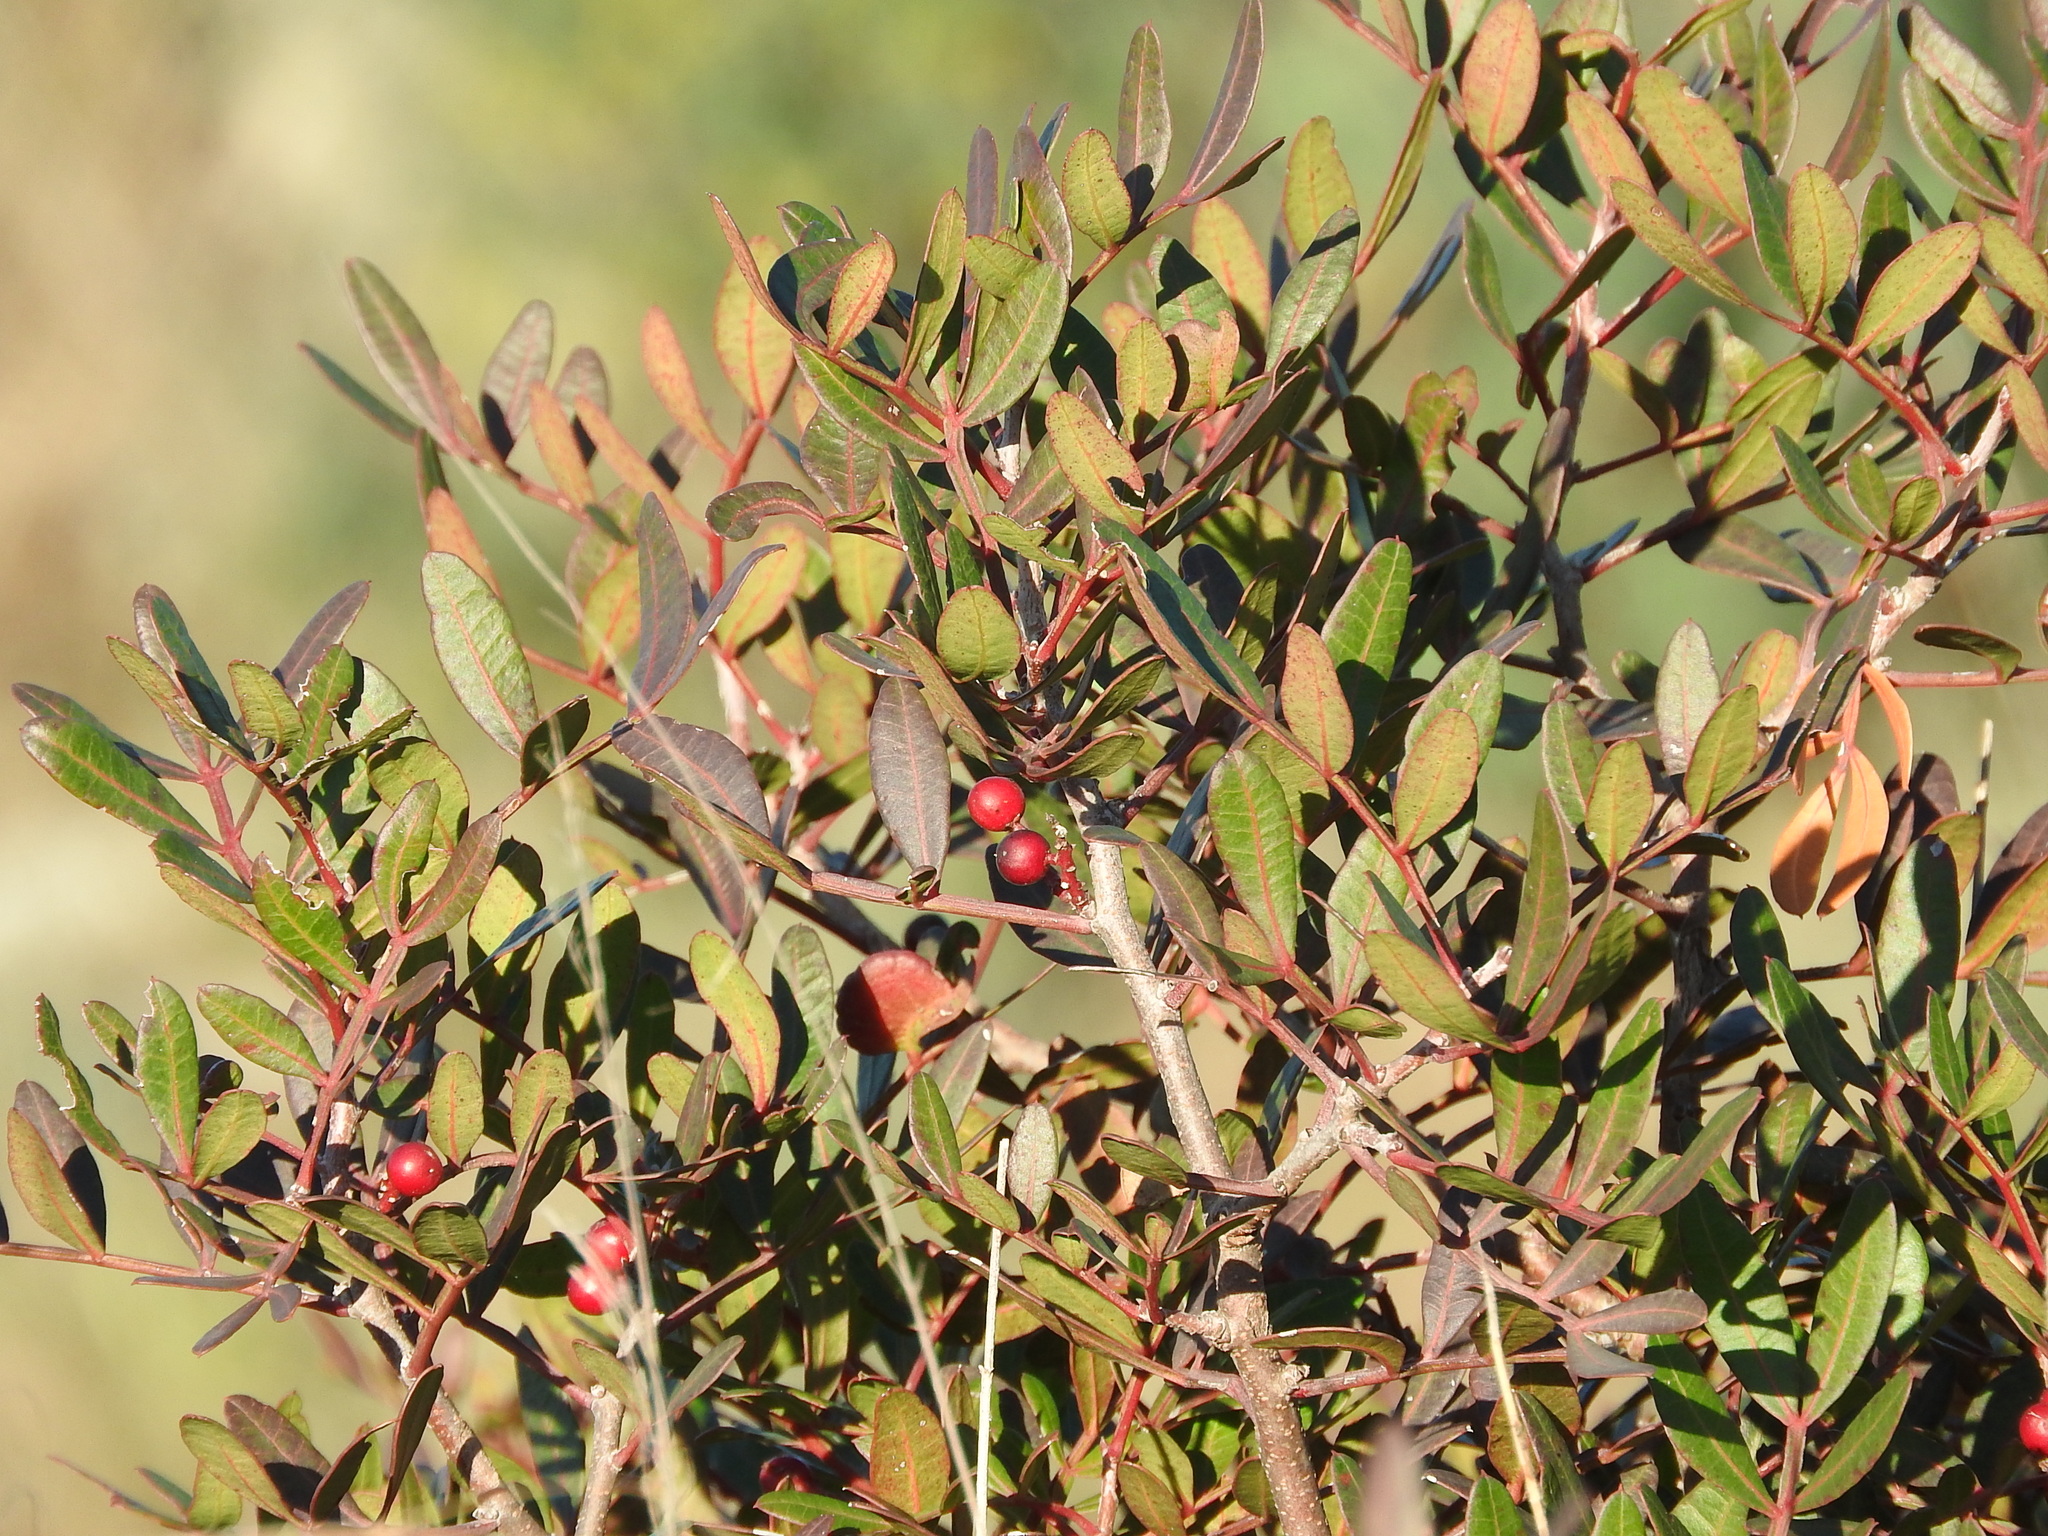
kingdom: Plantae
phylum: Tracheophyta
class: Magnoliopsida
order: Sapindales
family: Anacardiaceae
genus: Pistacia
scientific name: Pistacia lentiscus
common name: Lentisk
